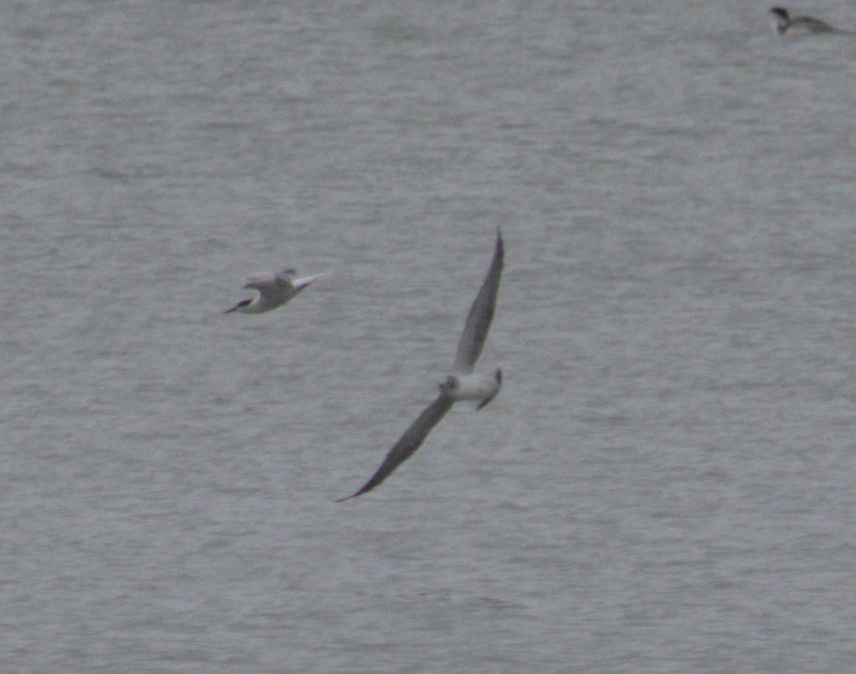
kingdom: Animalia
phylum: Chordata
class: Aves
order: Charadriiformes
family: Laridae
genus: Sterna
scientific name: Sterna forsteri
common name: Forster's tern
